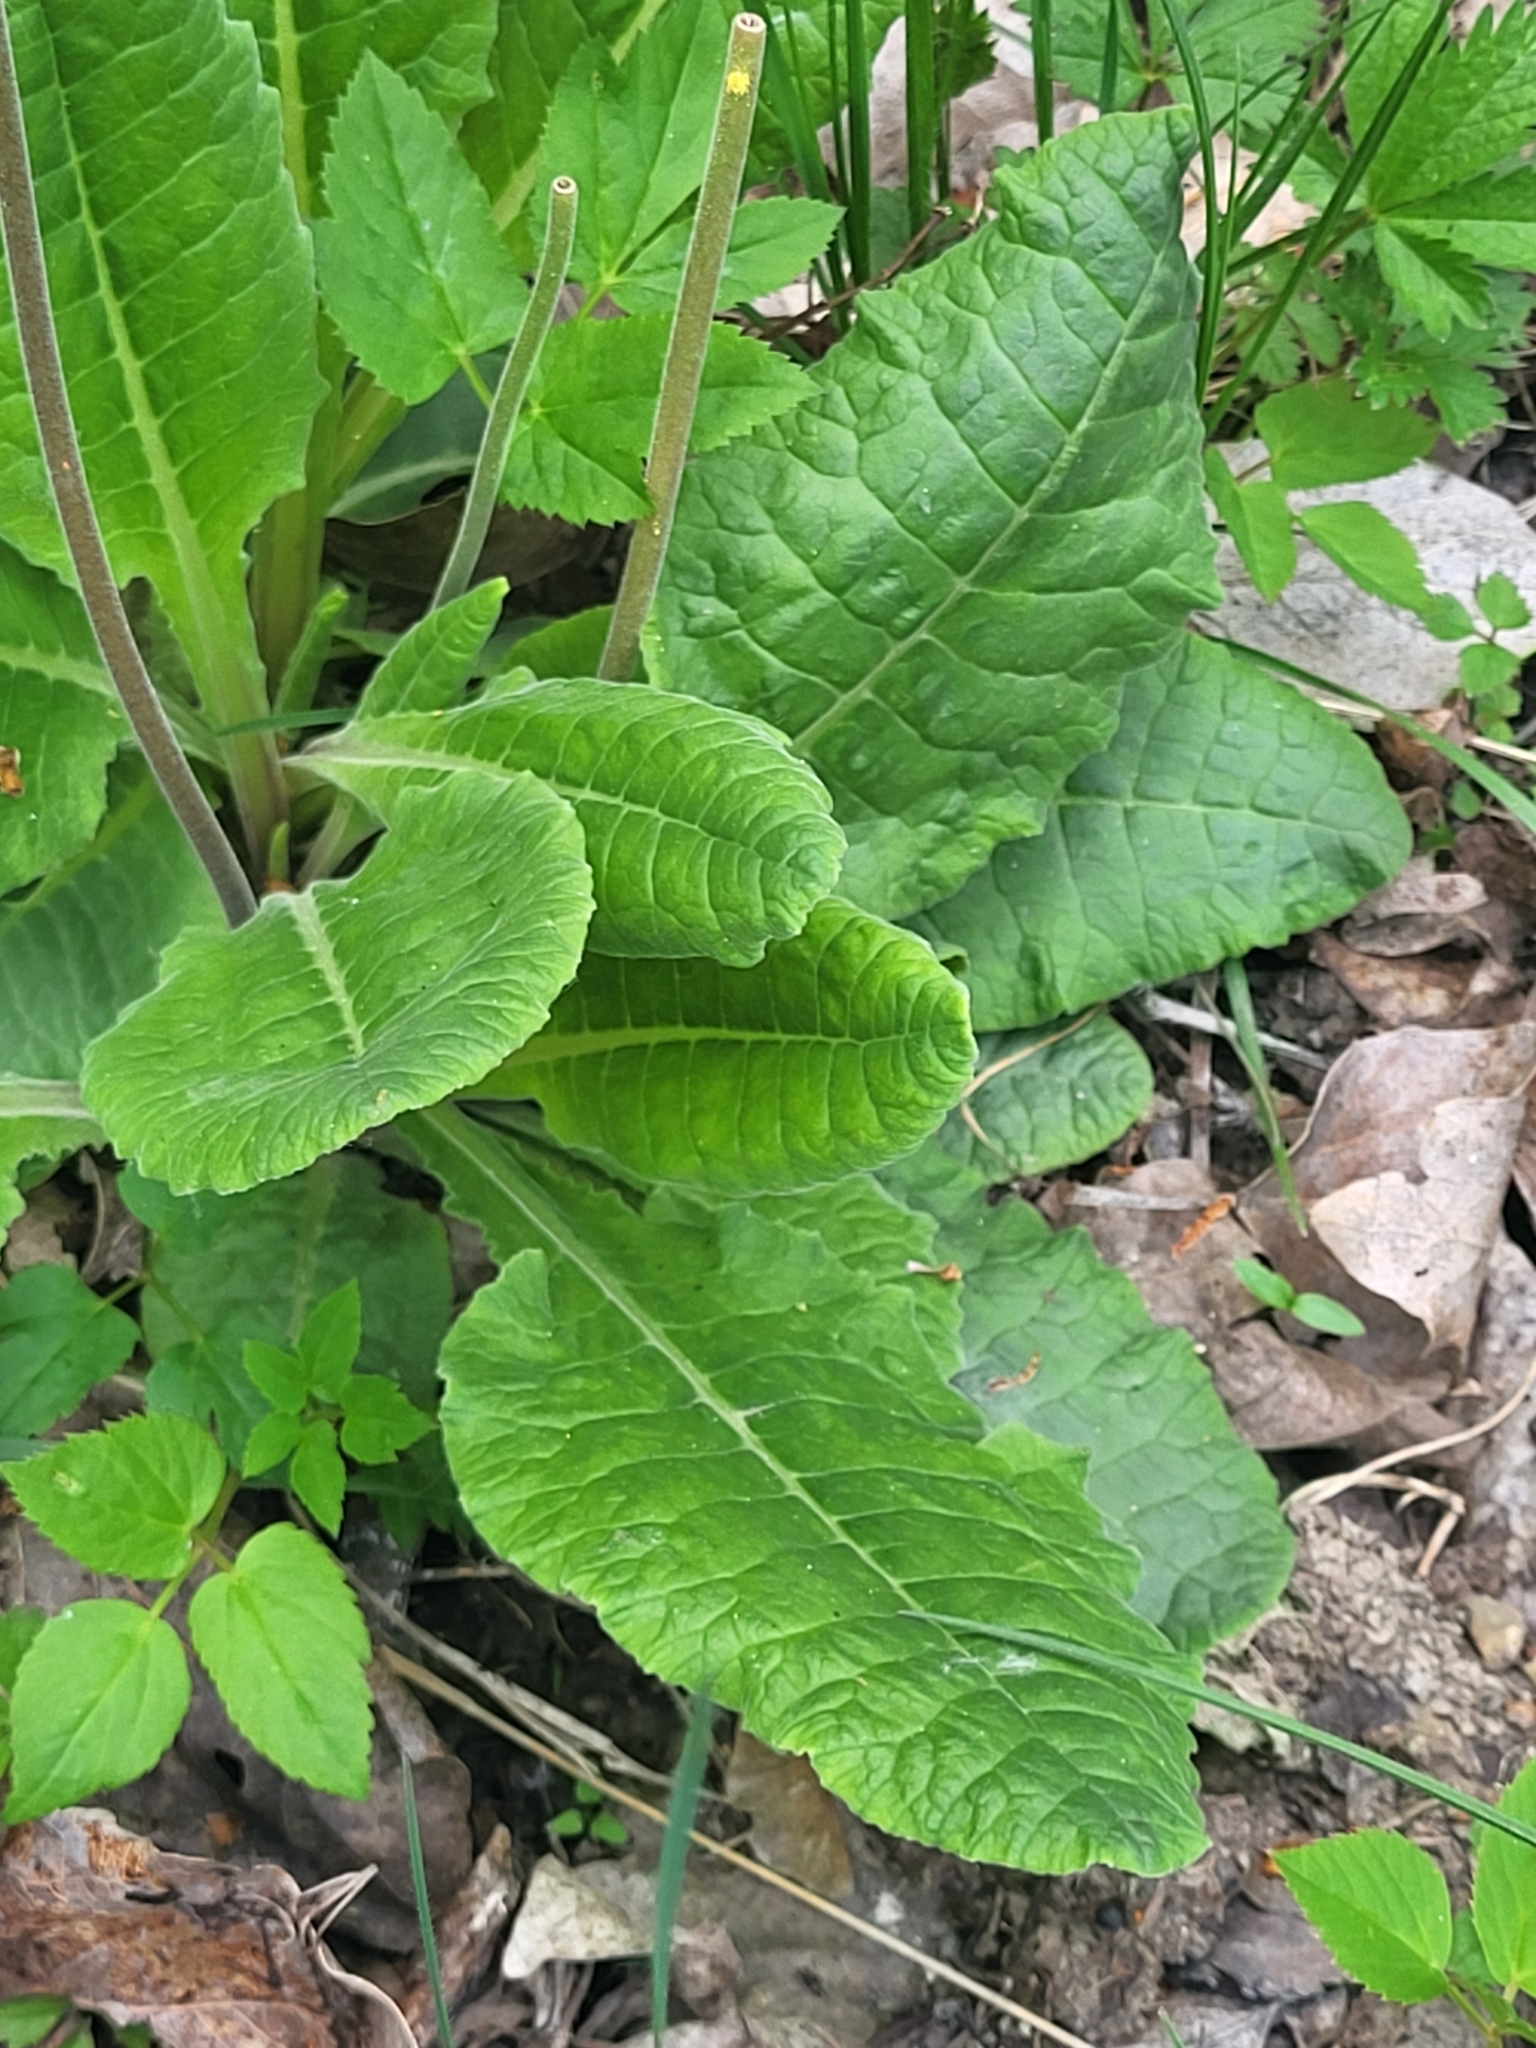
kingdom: Plantae
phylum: Tracheophyta
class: Magnoliopsida
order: Ericales
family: Primulaceae
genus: Primula
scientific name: Primula veris
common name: Cowslip
